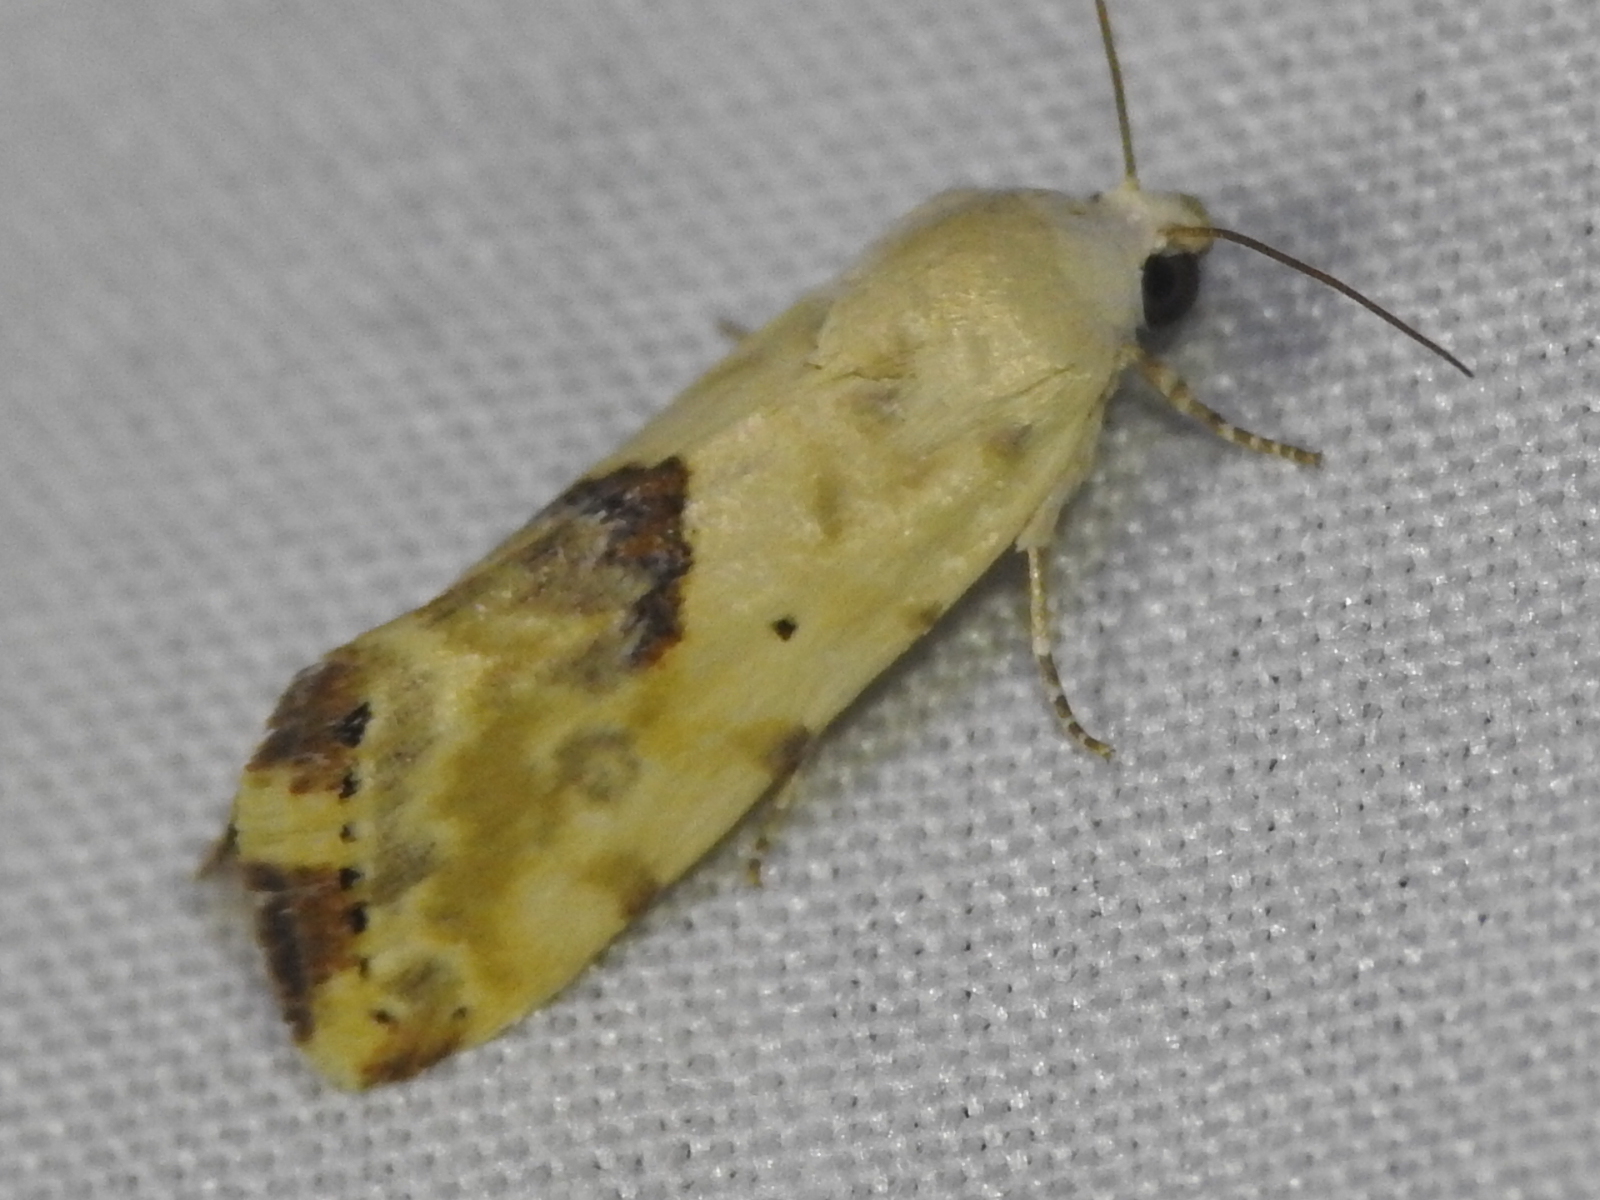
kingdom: Animalia
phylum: Arthropoda
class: Insecta
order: Lepidoptera
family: Noctuidae
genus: Acontia
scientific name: Acontia libedis
